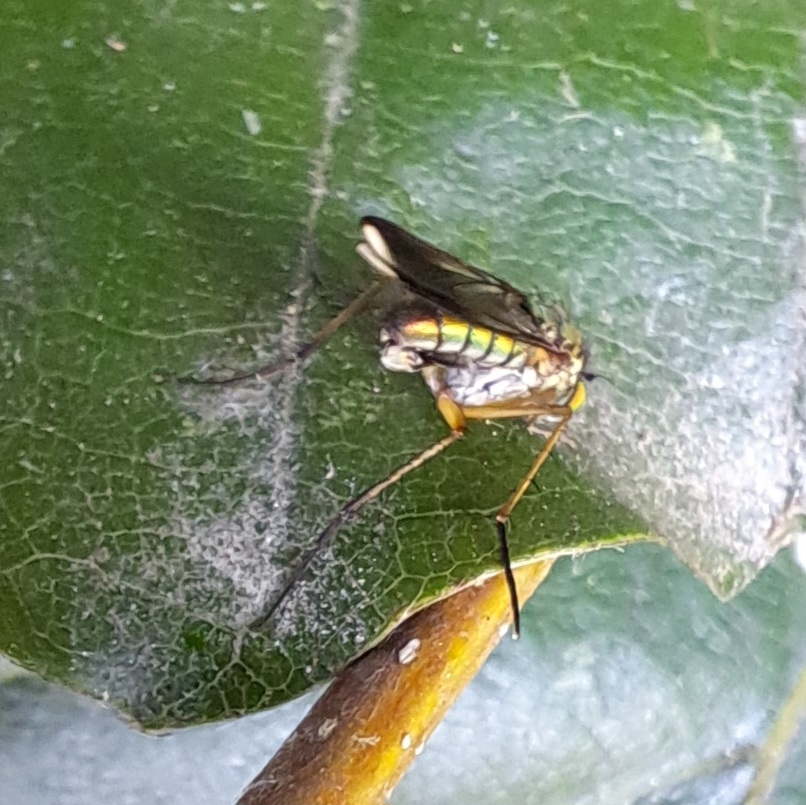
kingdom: Animalia
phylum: Arthropoda
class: Insecta
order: Diptera
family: Dolichopodidae
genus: Poecilobothrus
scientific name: Poecilobothrus nobilitatus
